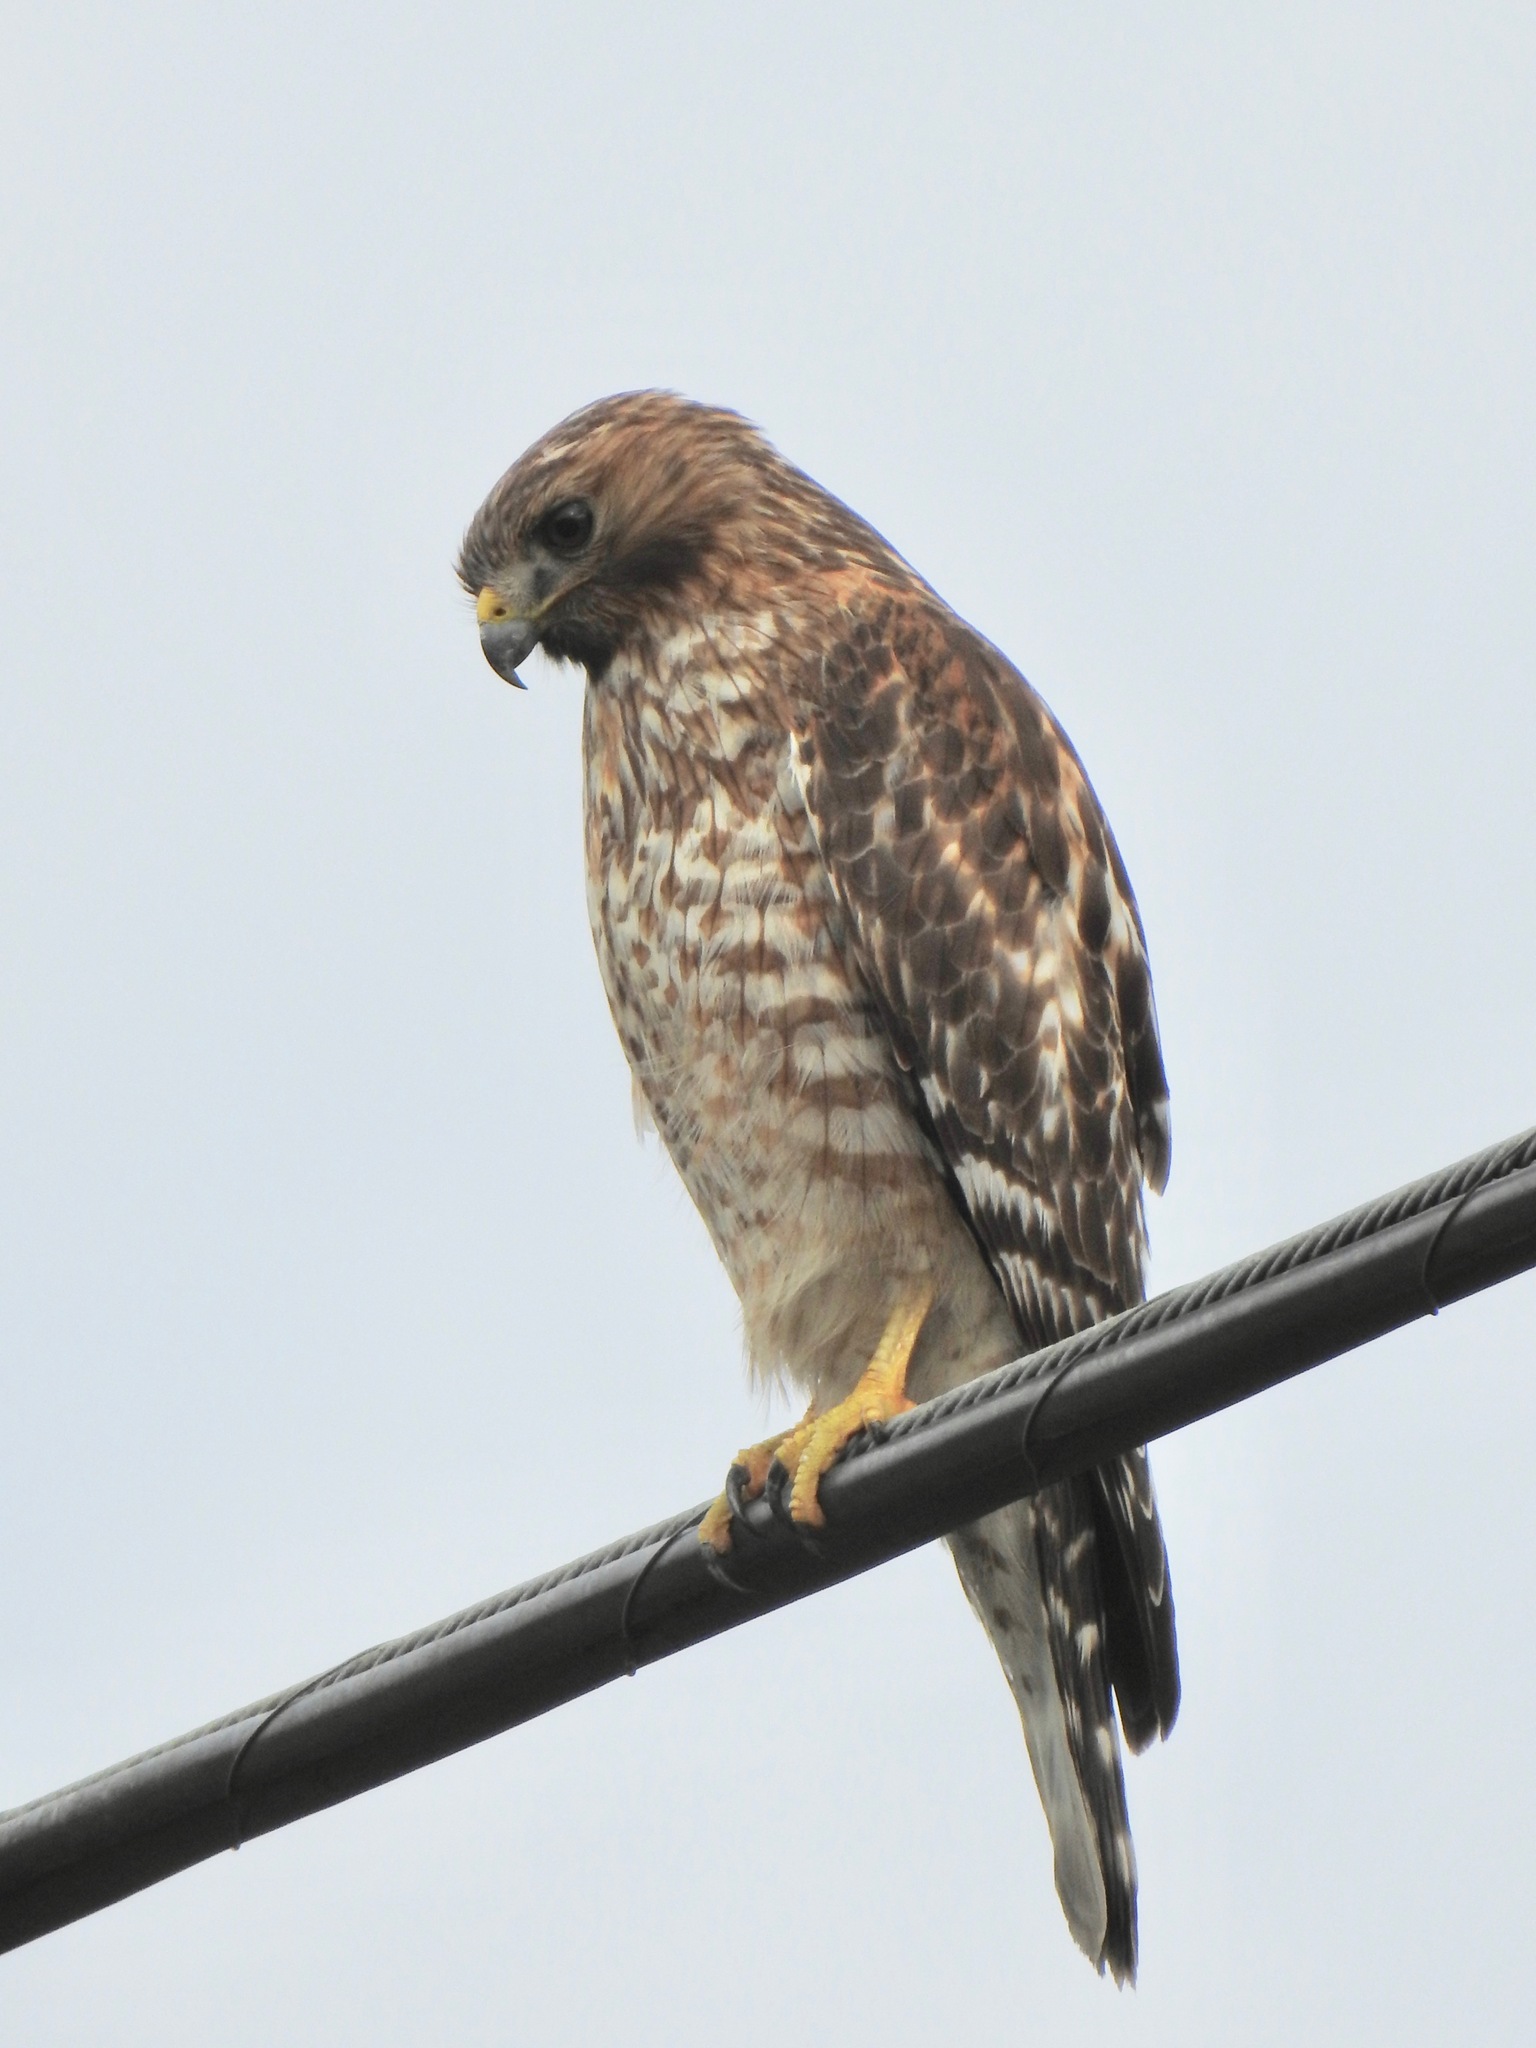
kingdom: Animalia
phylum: Chordata
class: Aves
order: Accipitriformes
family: Accipitridae
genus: Buteo
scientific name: Buteo lineatus
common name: Red-shouldered hawk
